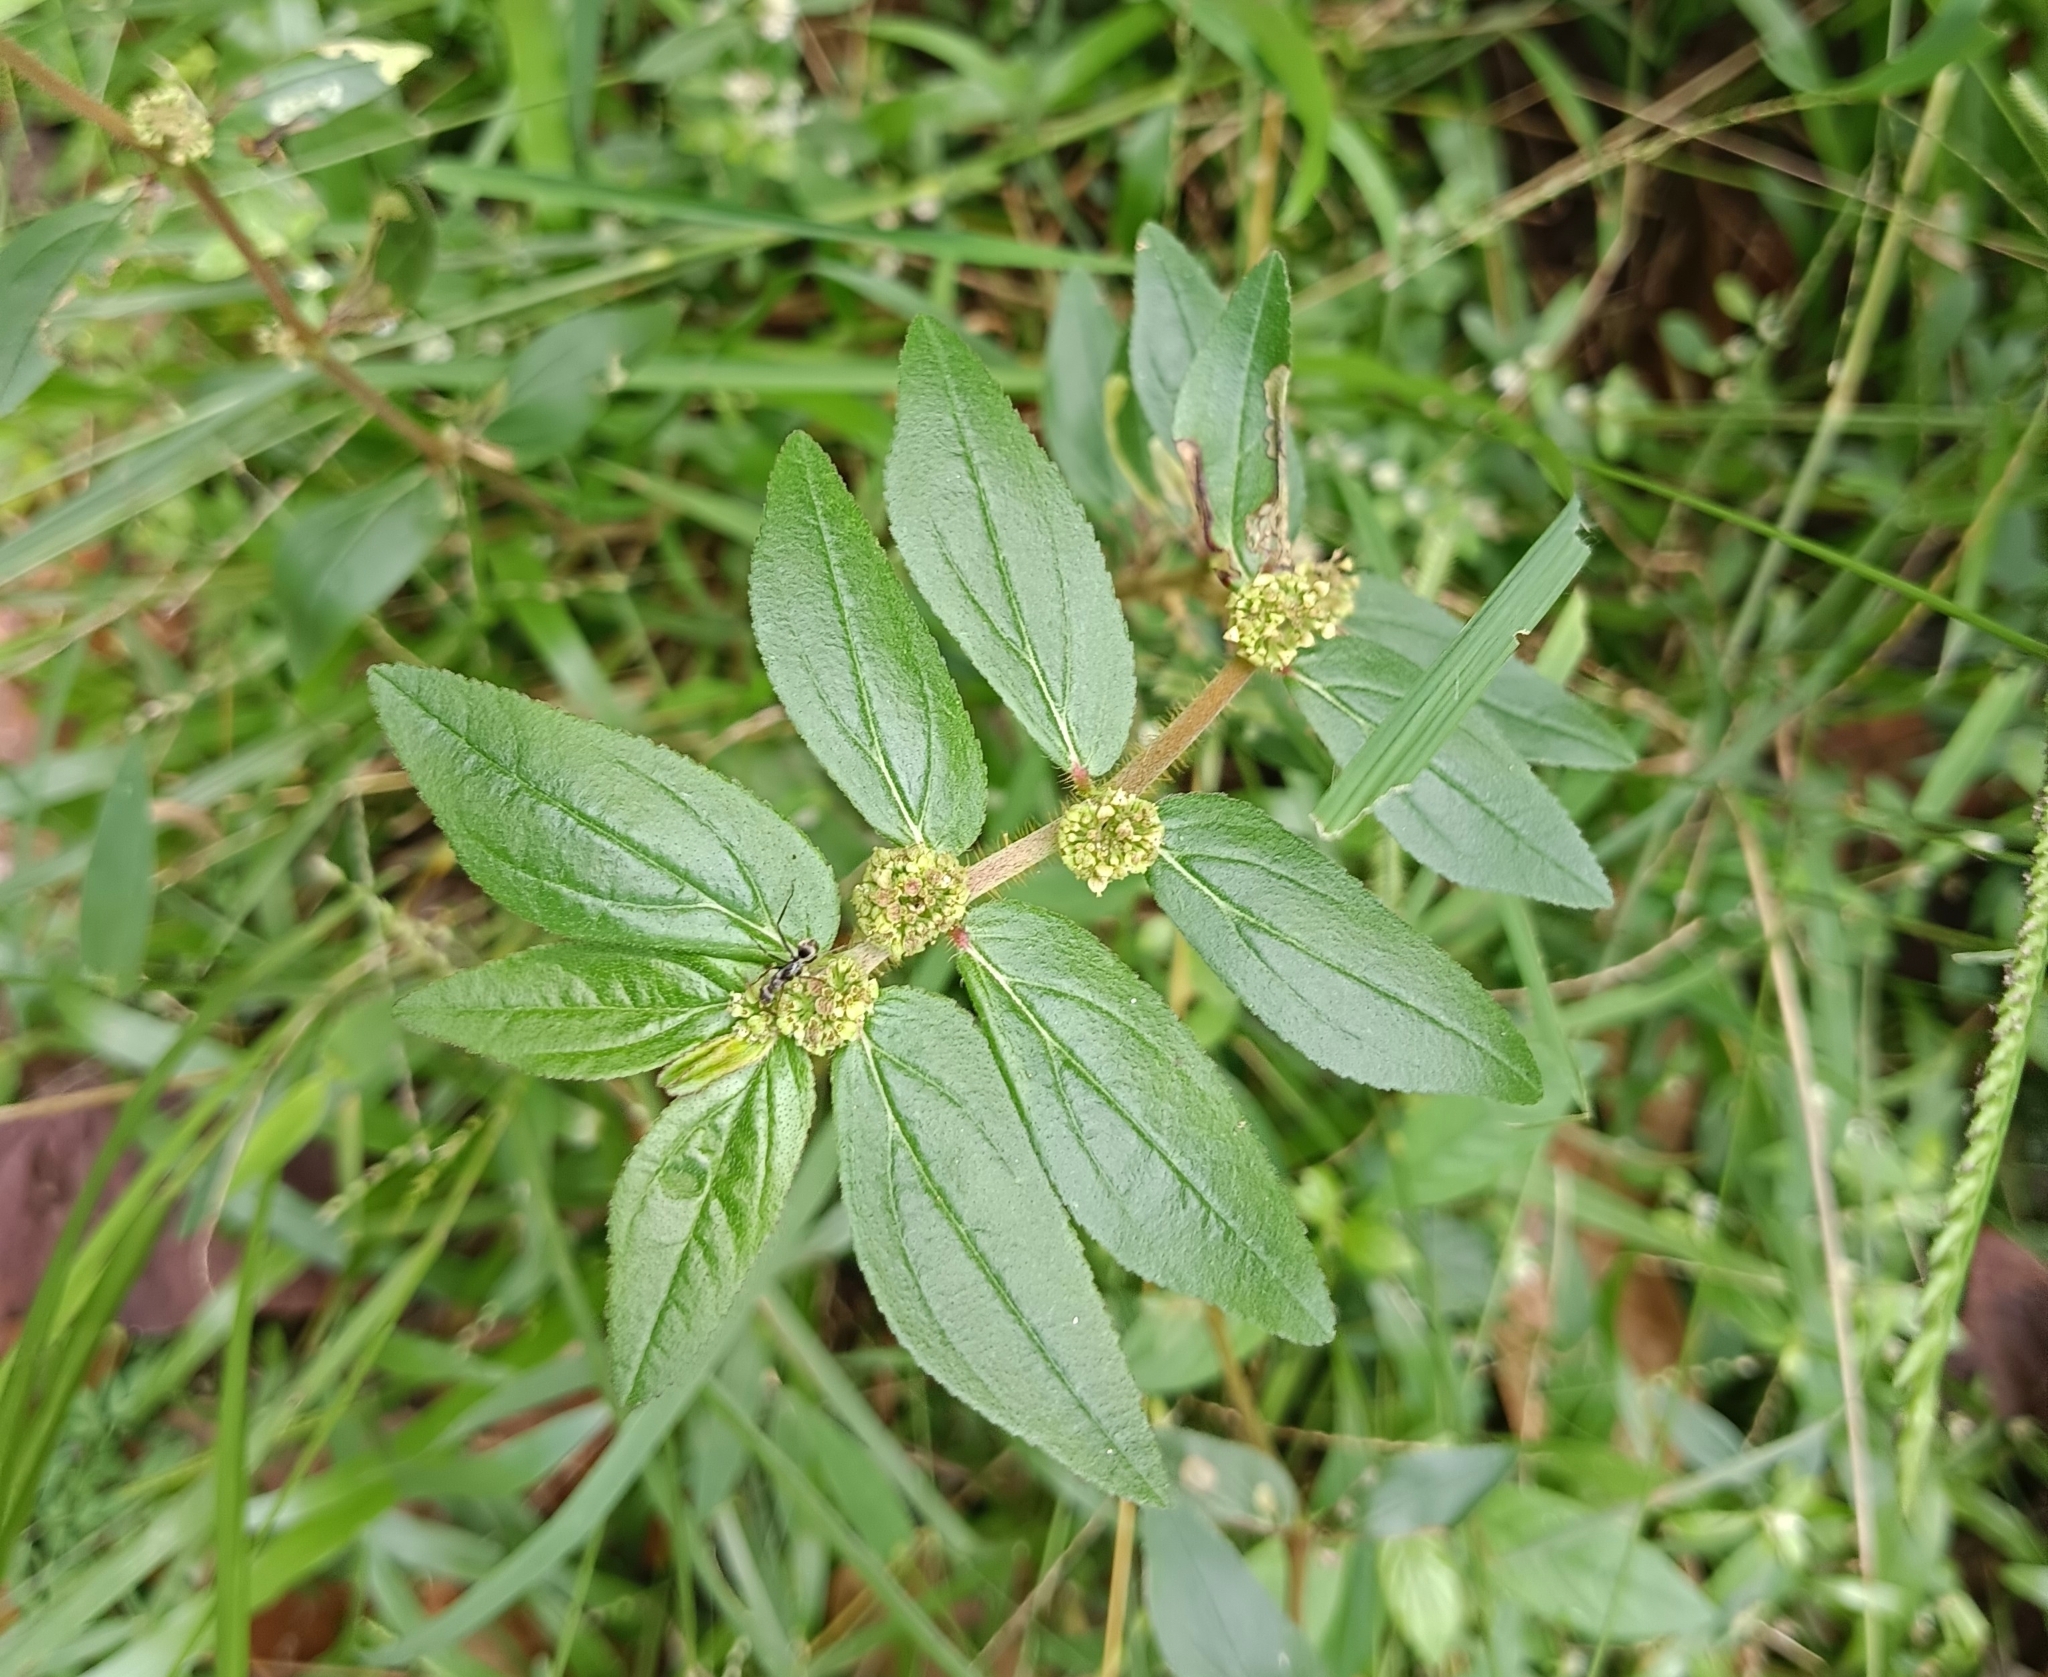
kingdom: Plantae
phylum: Tracheophyta
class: Magnoliopsida
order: Malpighiales
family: Euphorbiaceae
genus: Euphorbia
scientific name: Euphorbia hirta
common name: Pillpod sandmat
